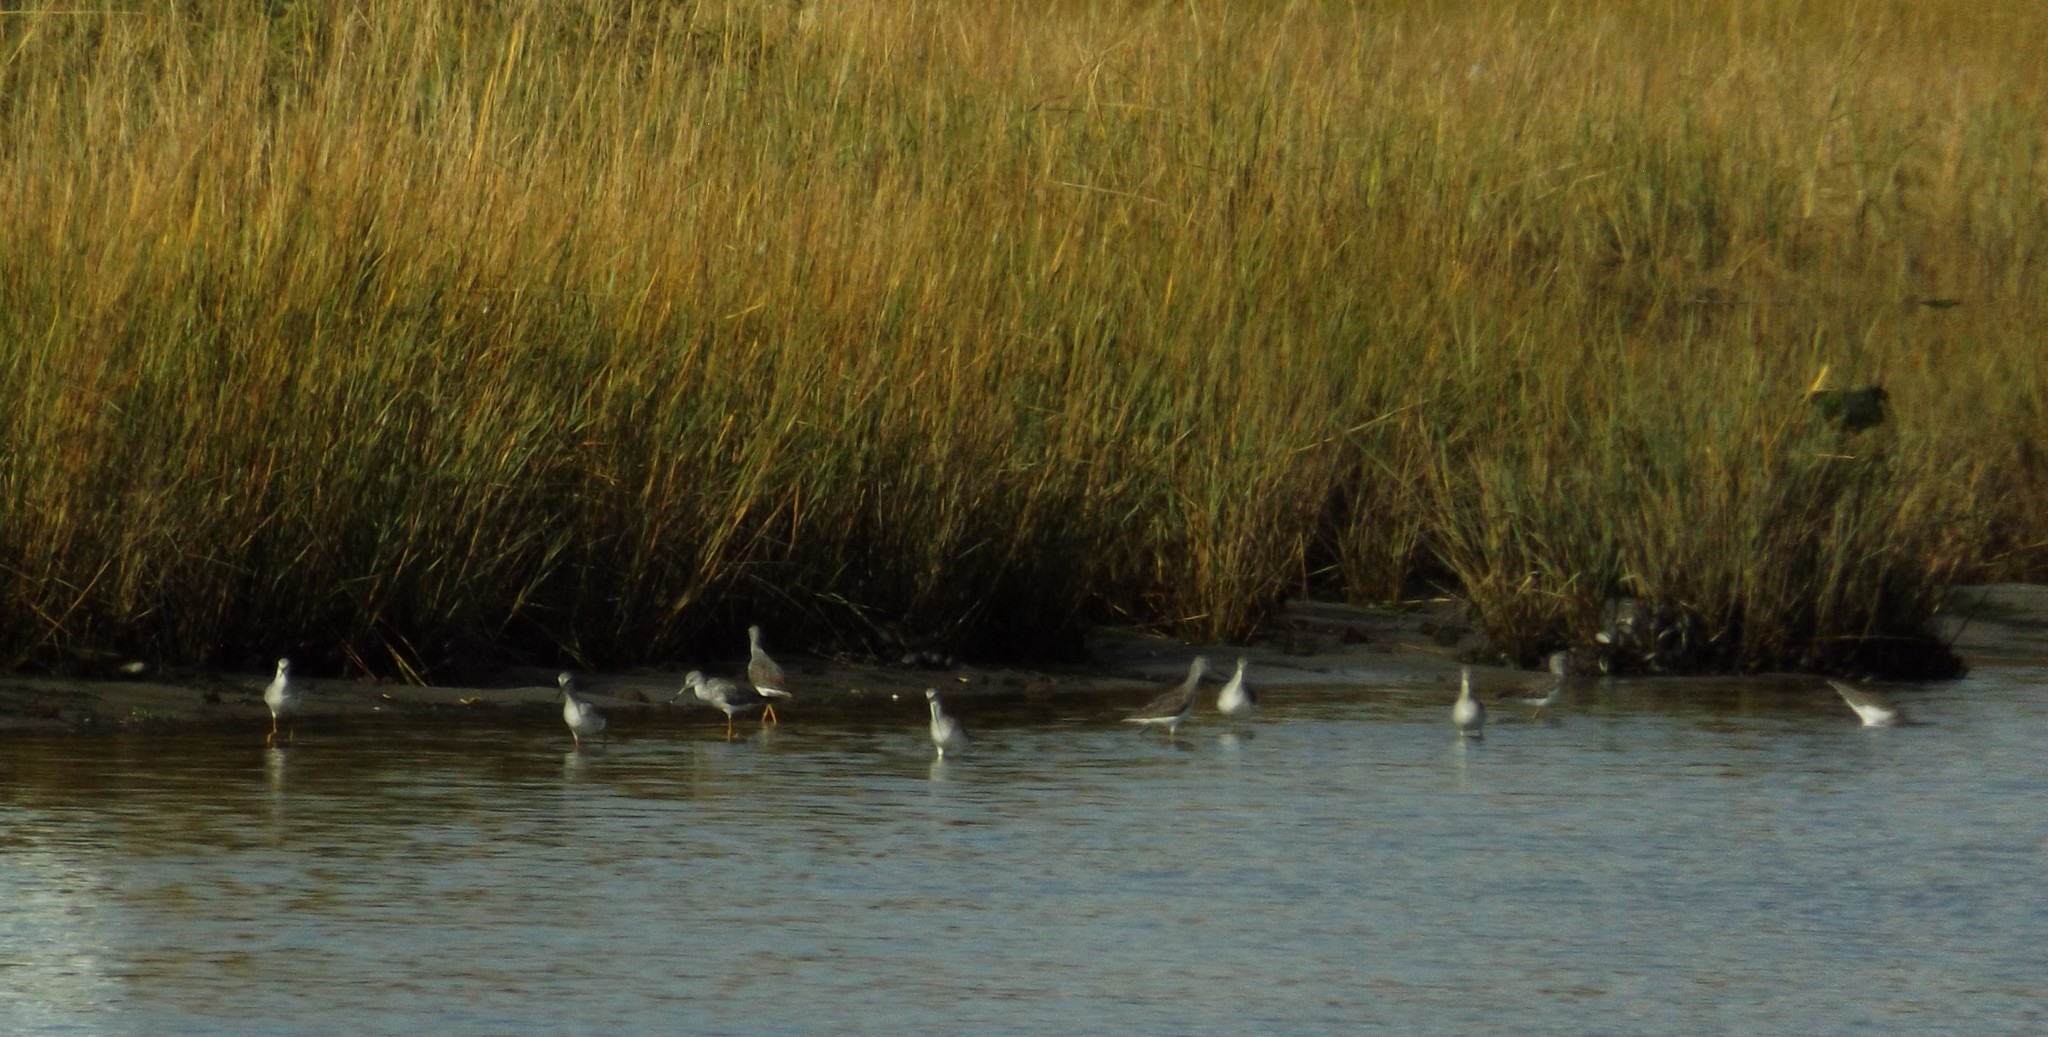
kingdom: Animalia
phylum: Chordata
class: Aves
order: Charadriiformes
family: Scolopacidae
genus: Tringa
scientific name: Tringa melanoleuca
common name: Greater yellowlegs
